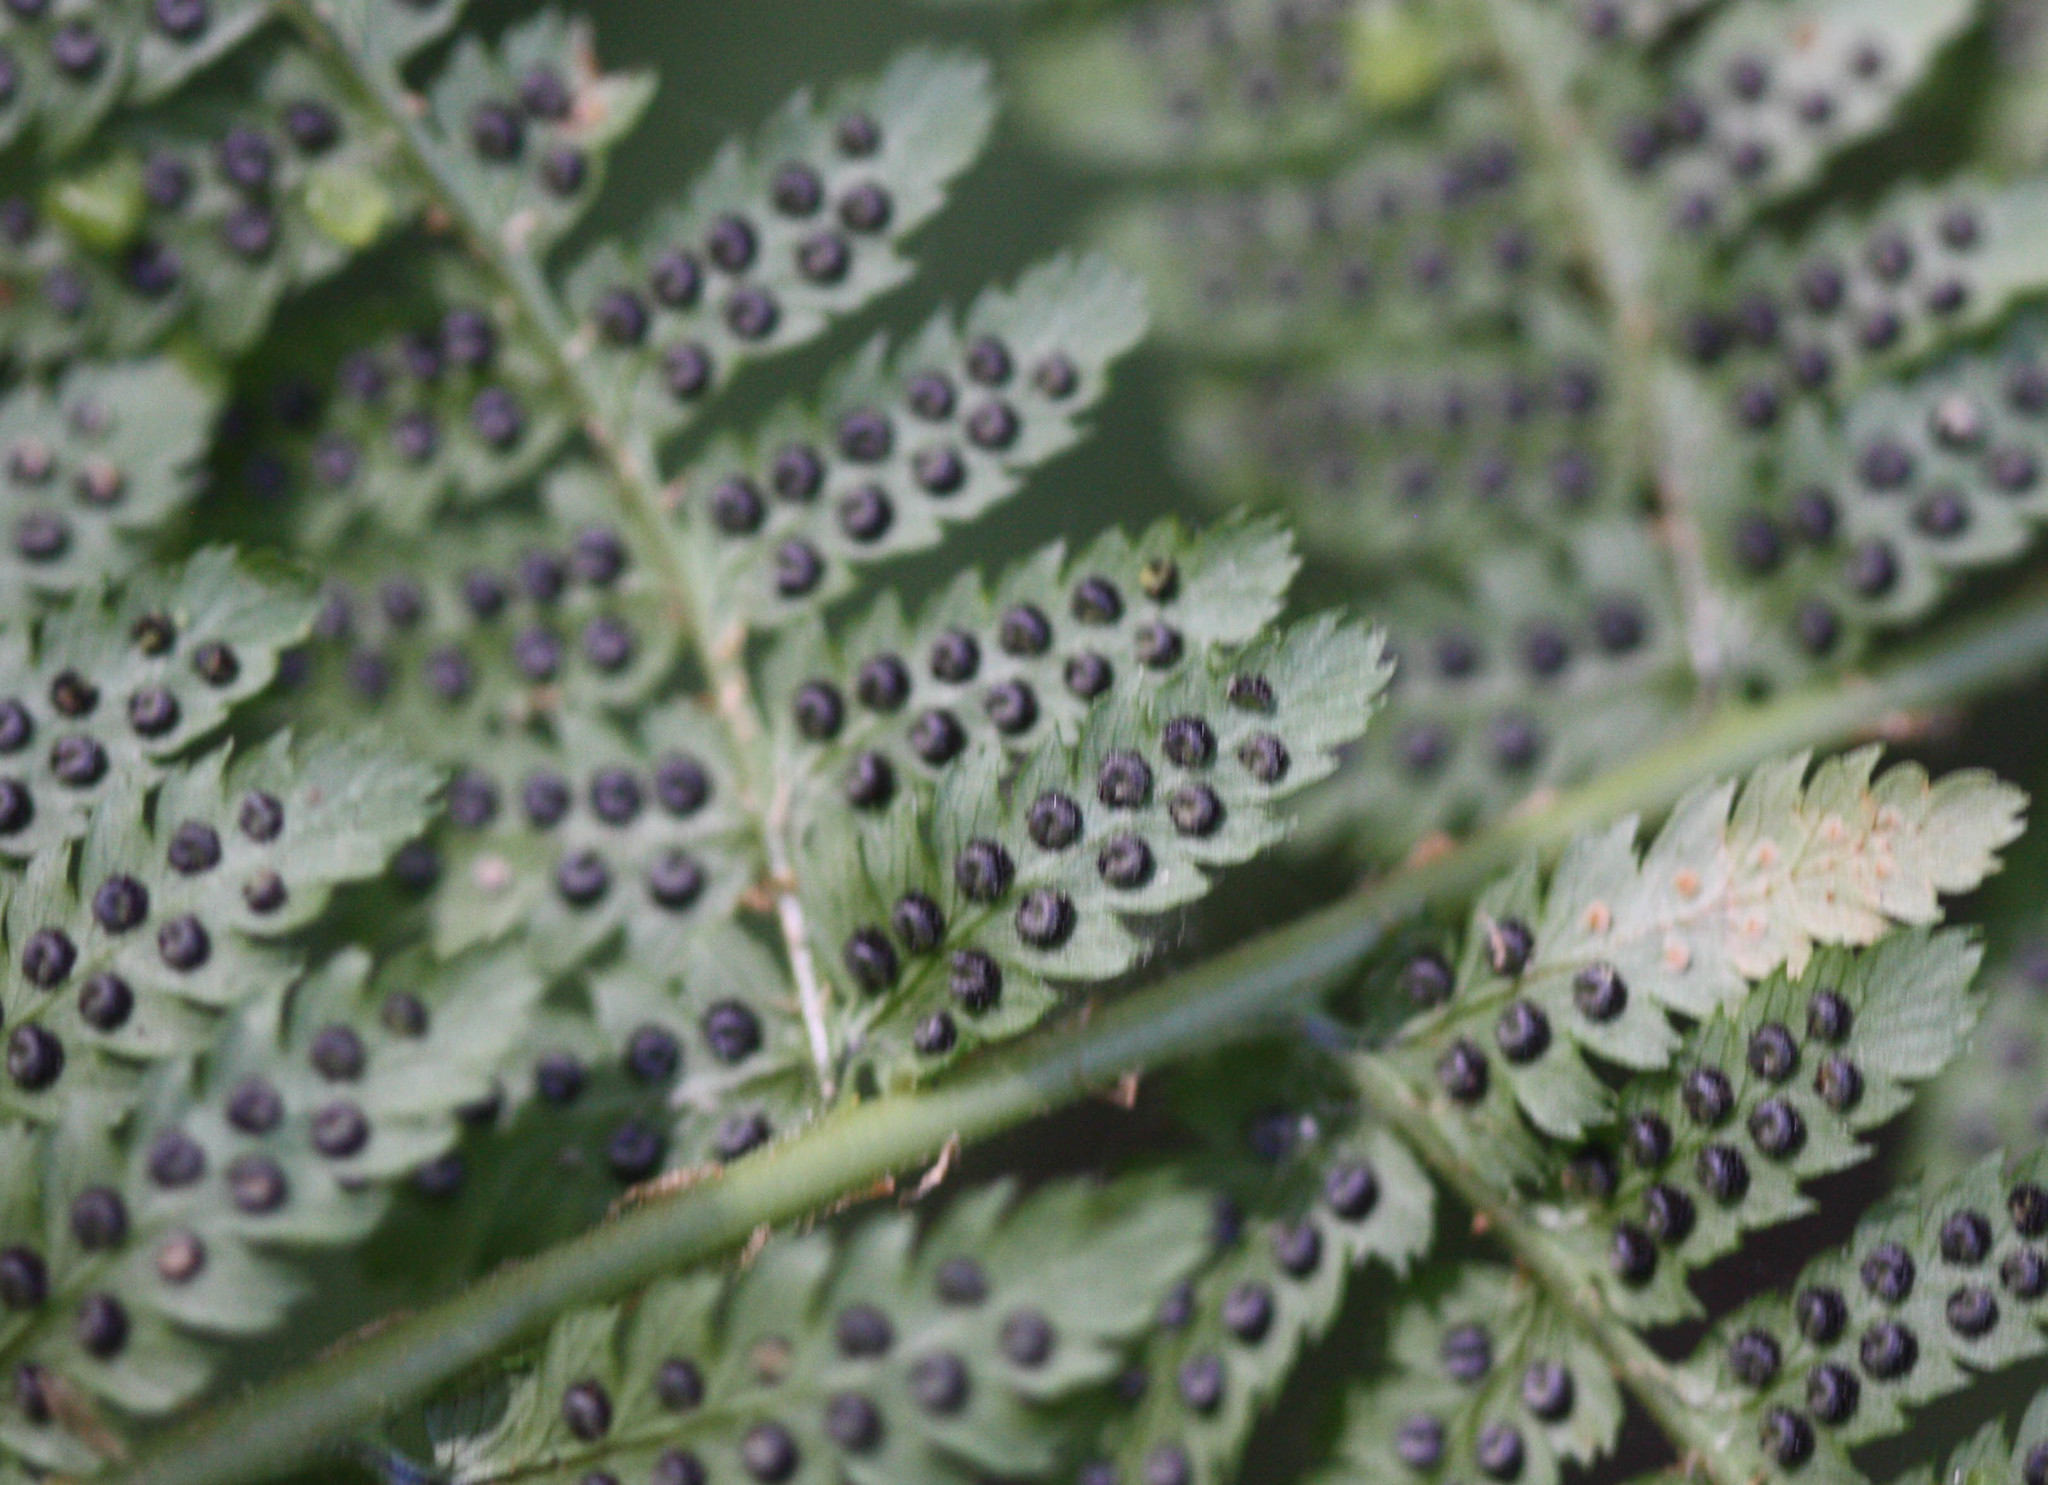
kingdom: Plantae
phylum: Tracheophyta
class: Polypodiopsida
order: Polypodiales
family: Dryopteridaceae
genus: Dryopteris
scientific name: Dryopteris arguta
